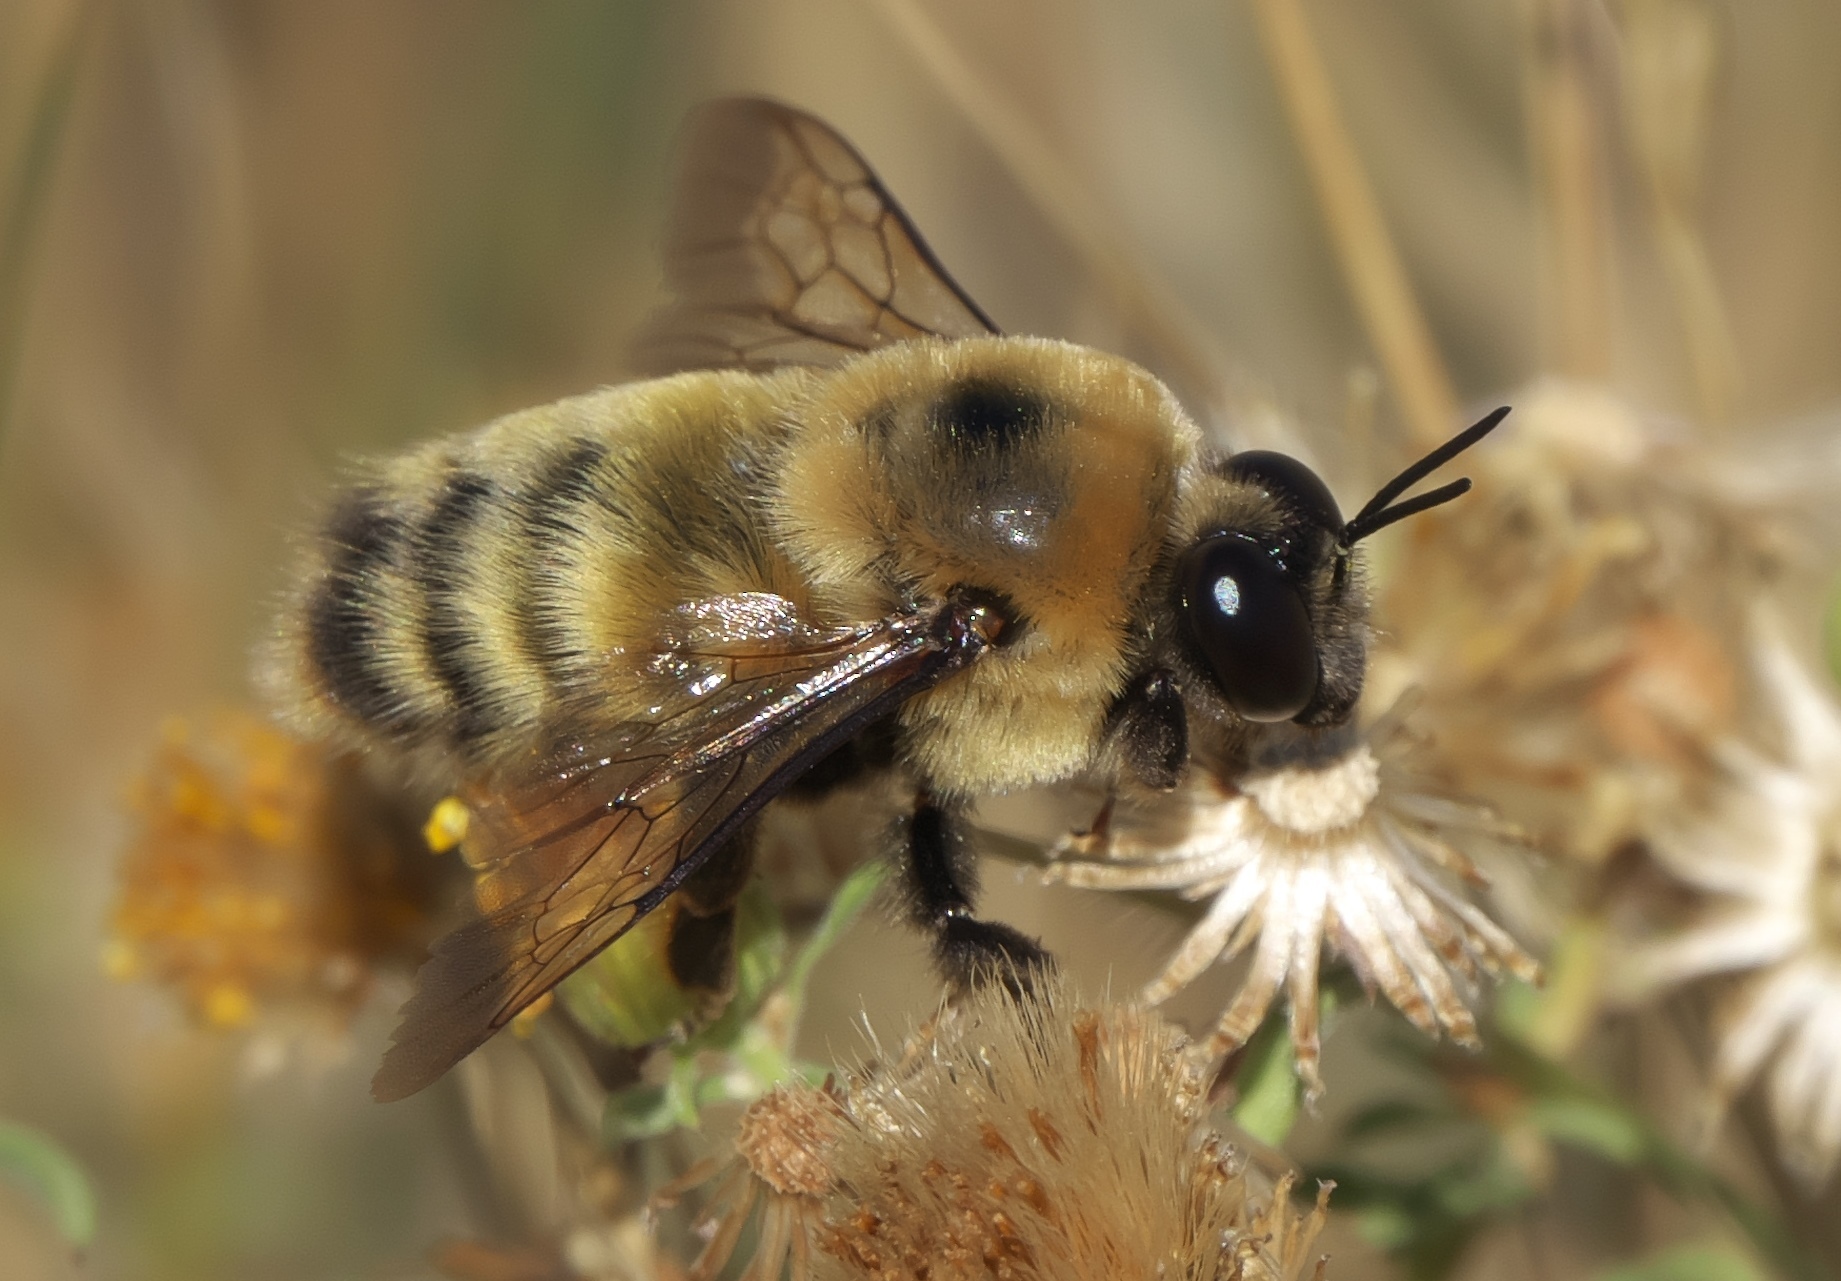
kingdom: Animalia
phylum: Arthropoda
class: Insecta
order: Hymenoptera
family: Apidae
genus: Bombus
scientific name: Bombus nevadensis
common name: Nevada bumble bee
